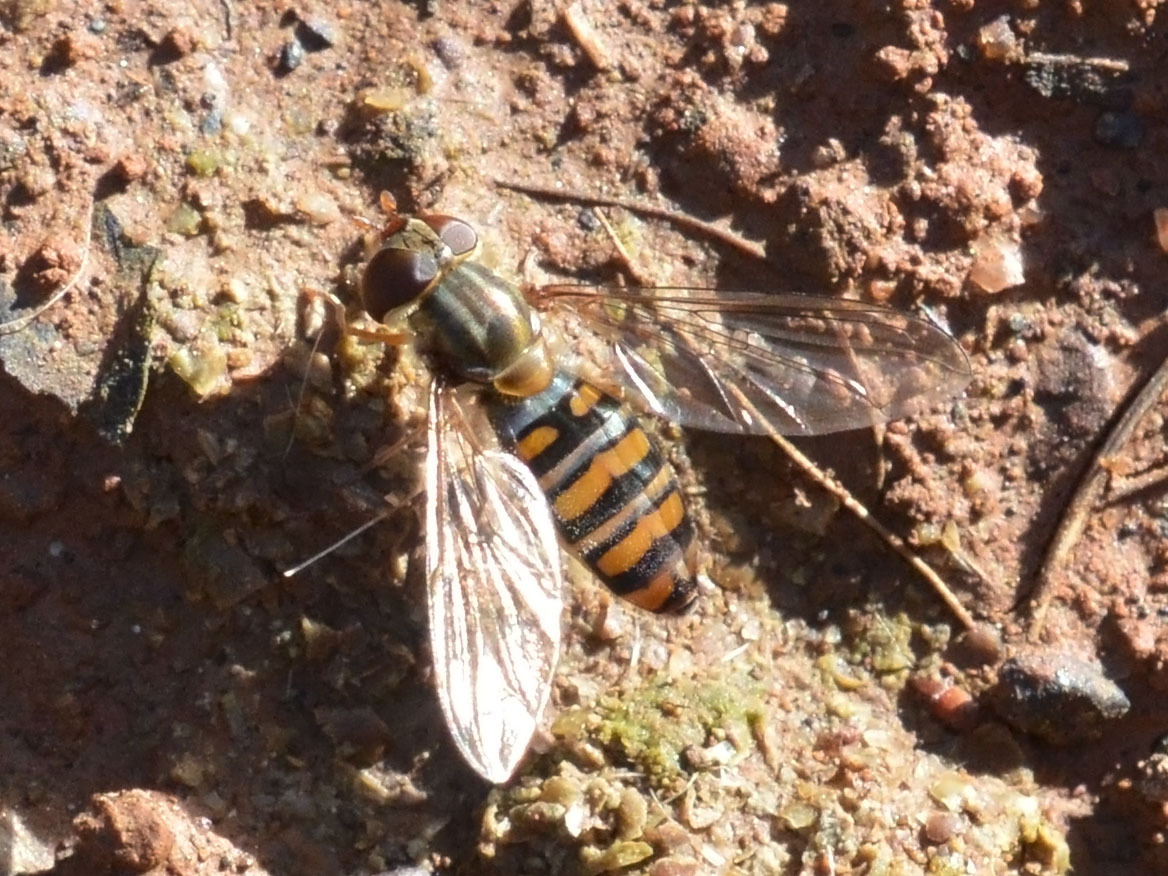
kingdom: Animalia
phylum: Arthropoda
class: Insecta
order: Diptera
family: Syrphidae
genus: Episyrphus
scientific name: Episyrphus balteatus
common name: Marmalade hoverfly
